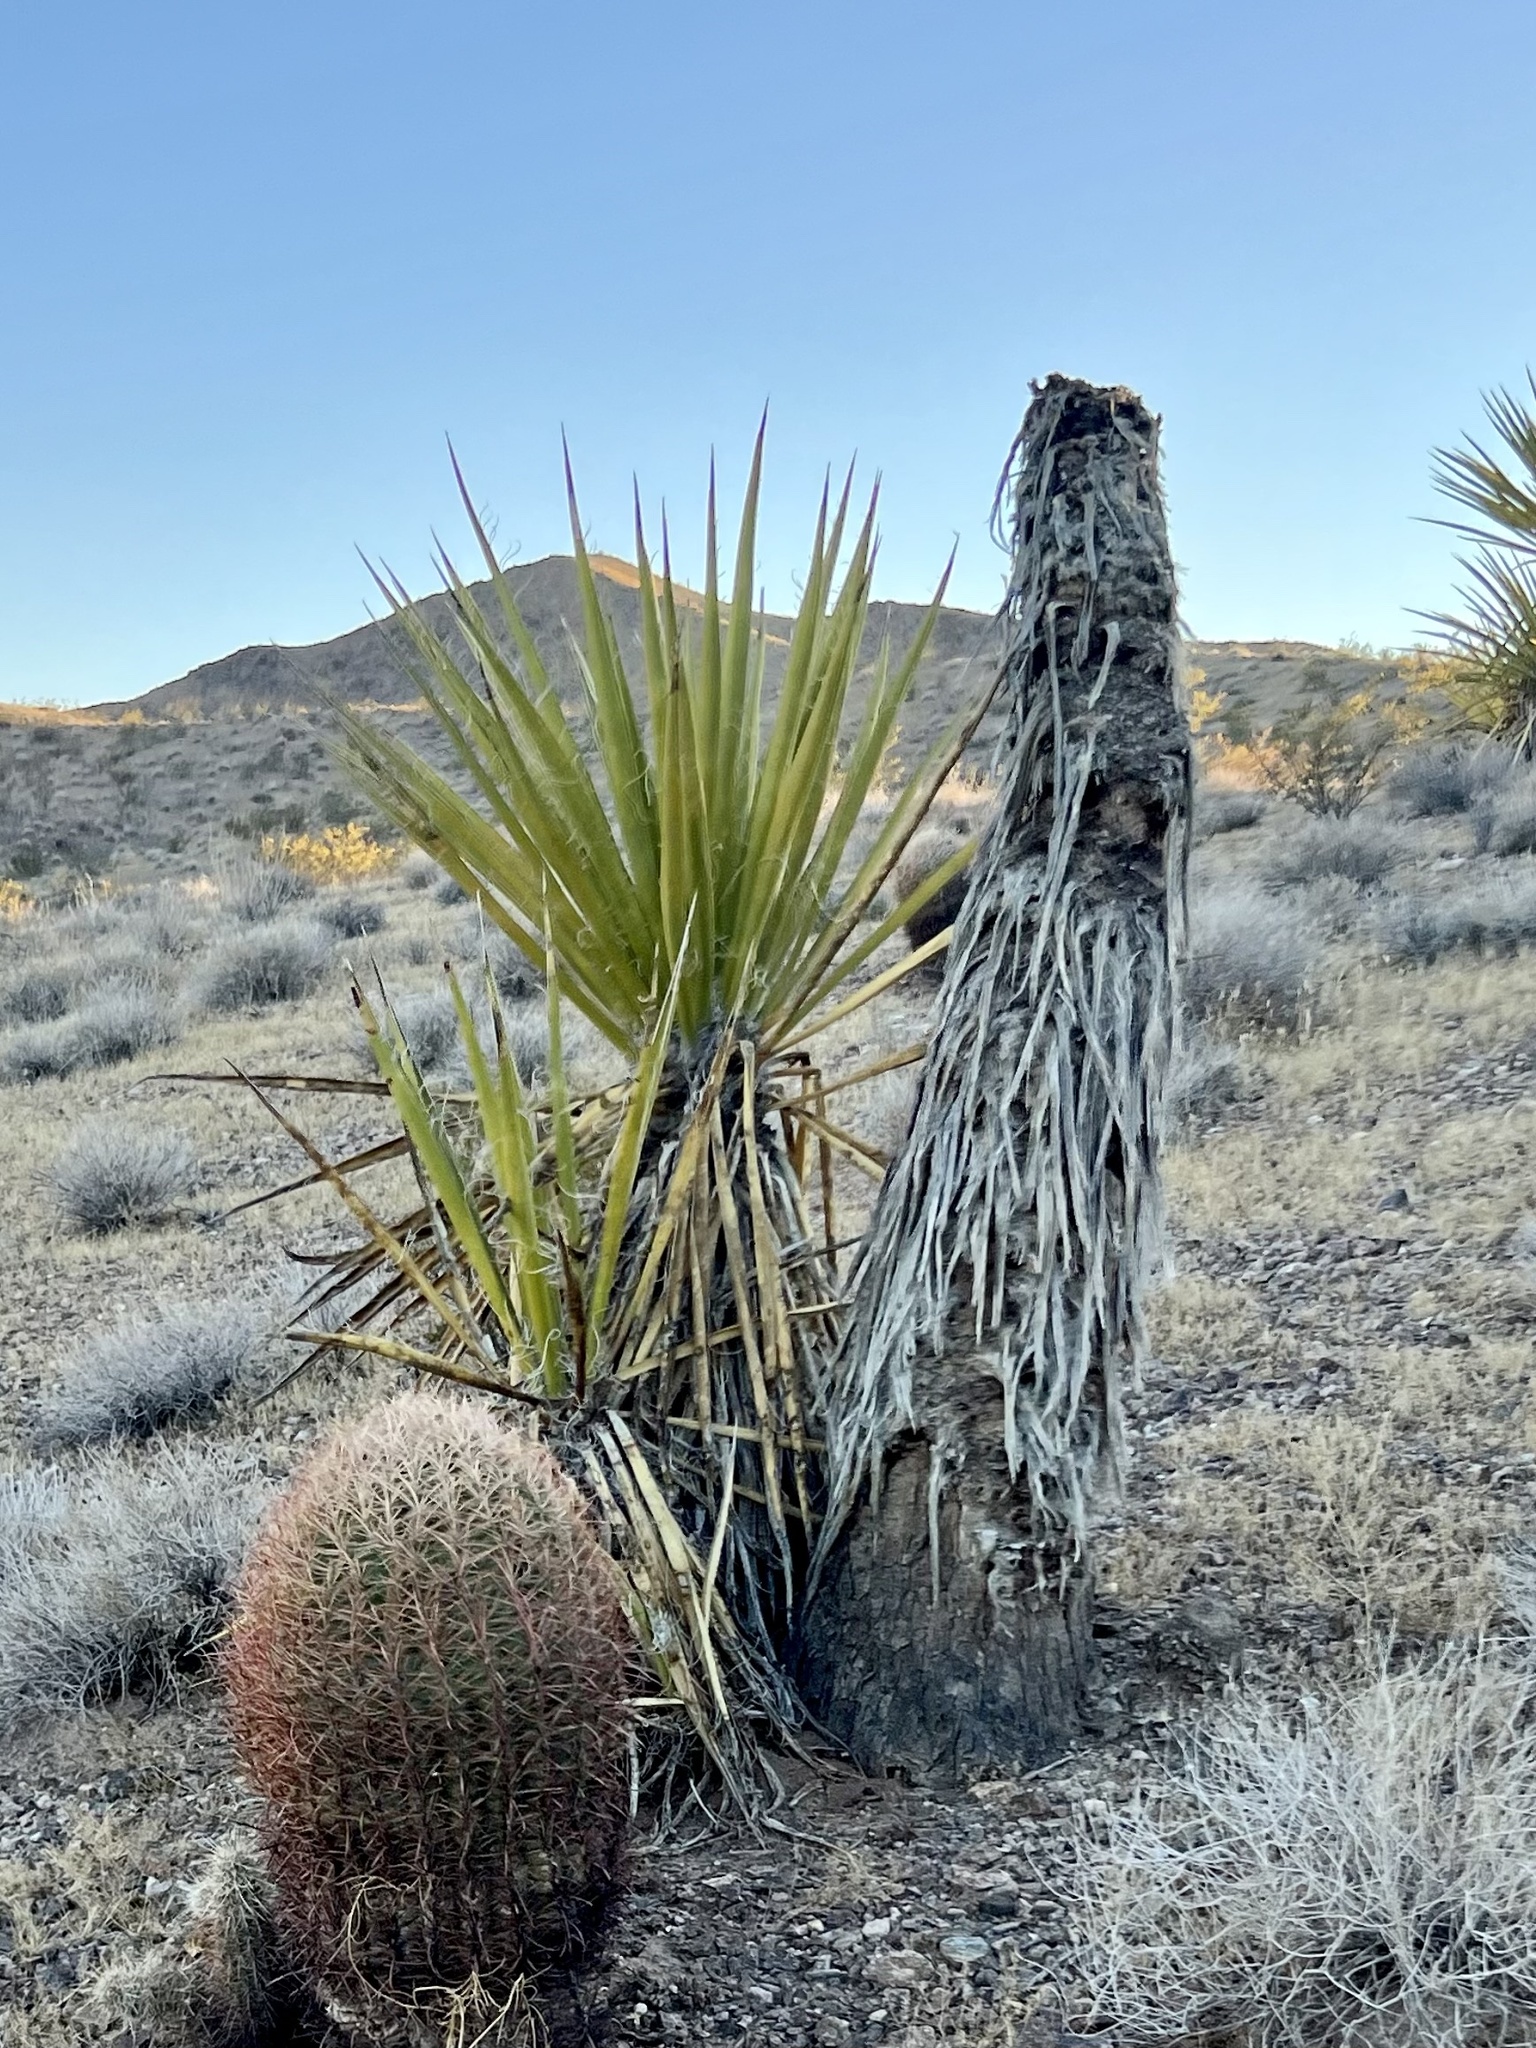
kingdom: Plantae
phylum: Tracheophyta
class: Liliopsida
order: Asparagales
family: Asparagaceae
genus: Yucca
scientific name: Yucca schidigera
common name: Mojave yucca
